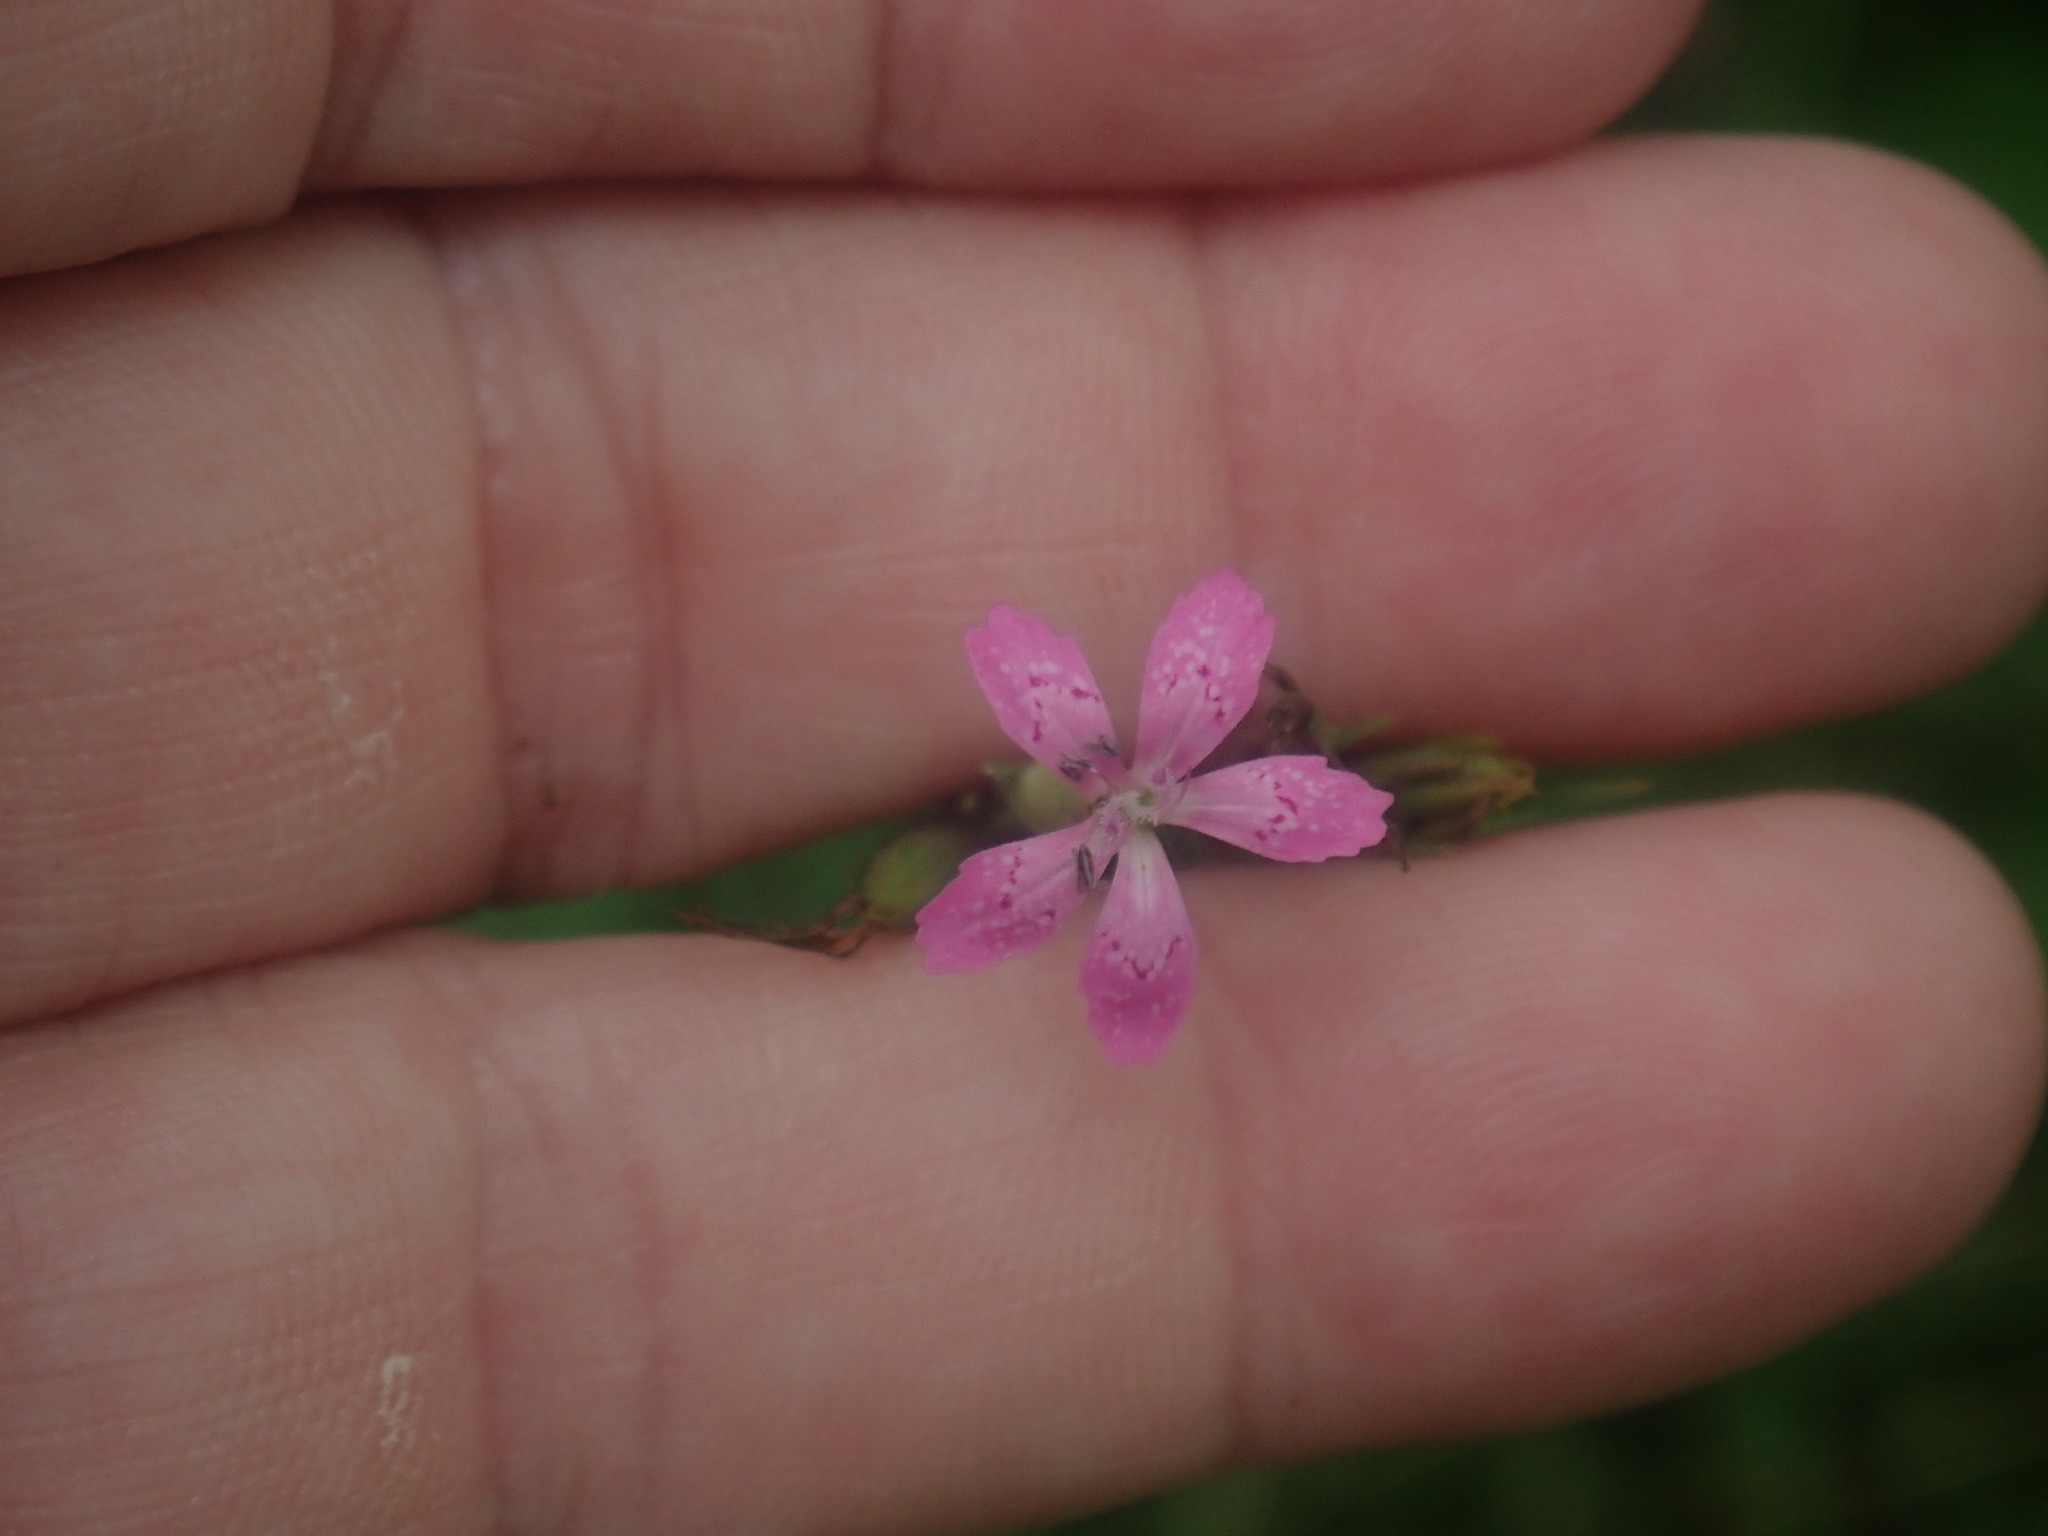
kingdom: Plantae
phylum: Tracheophyta
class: Magnoliopsida
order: Caryophyllales
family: Caryophyllaceae
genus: Dianthus
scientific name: Dianthus armeria
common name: Deptford pink
